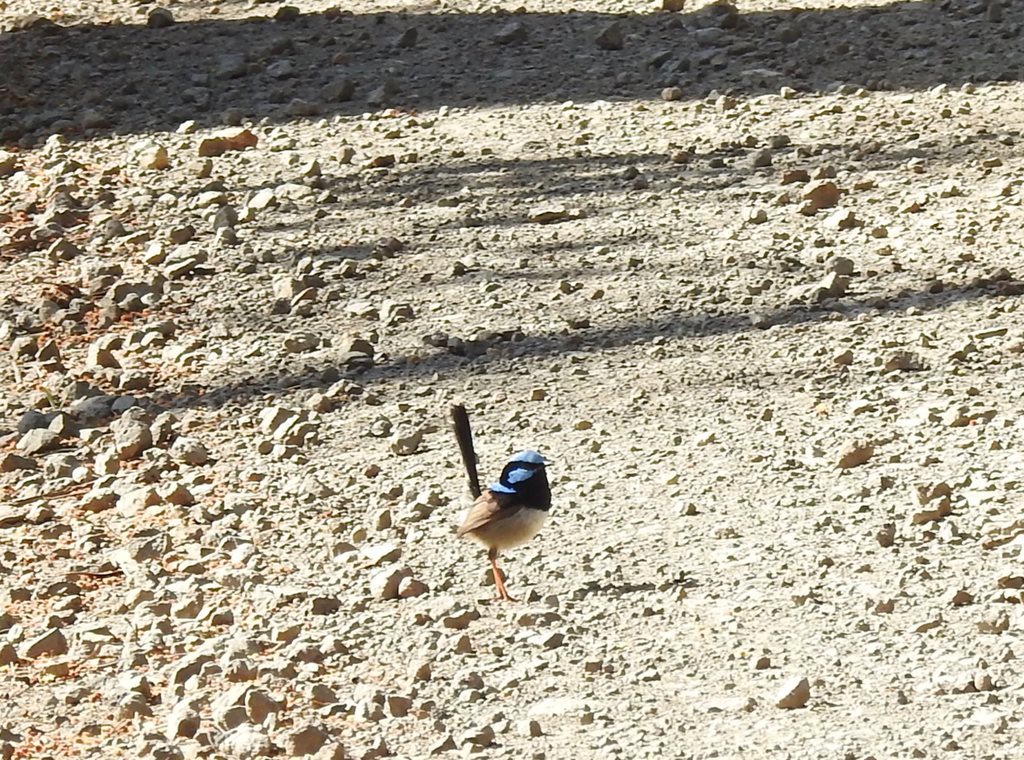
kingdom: Animalia
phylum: Chordata
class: Aves
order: Passeriformes
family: Maluridae
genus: Malurus
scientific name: Malurus cyaneus
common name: Superb fairywren
